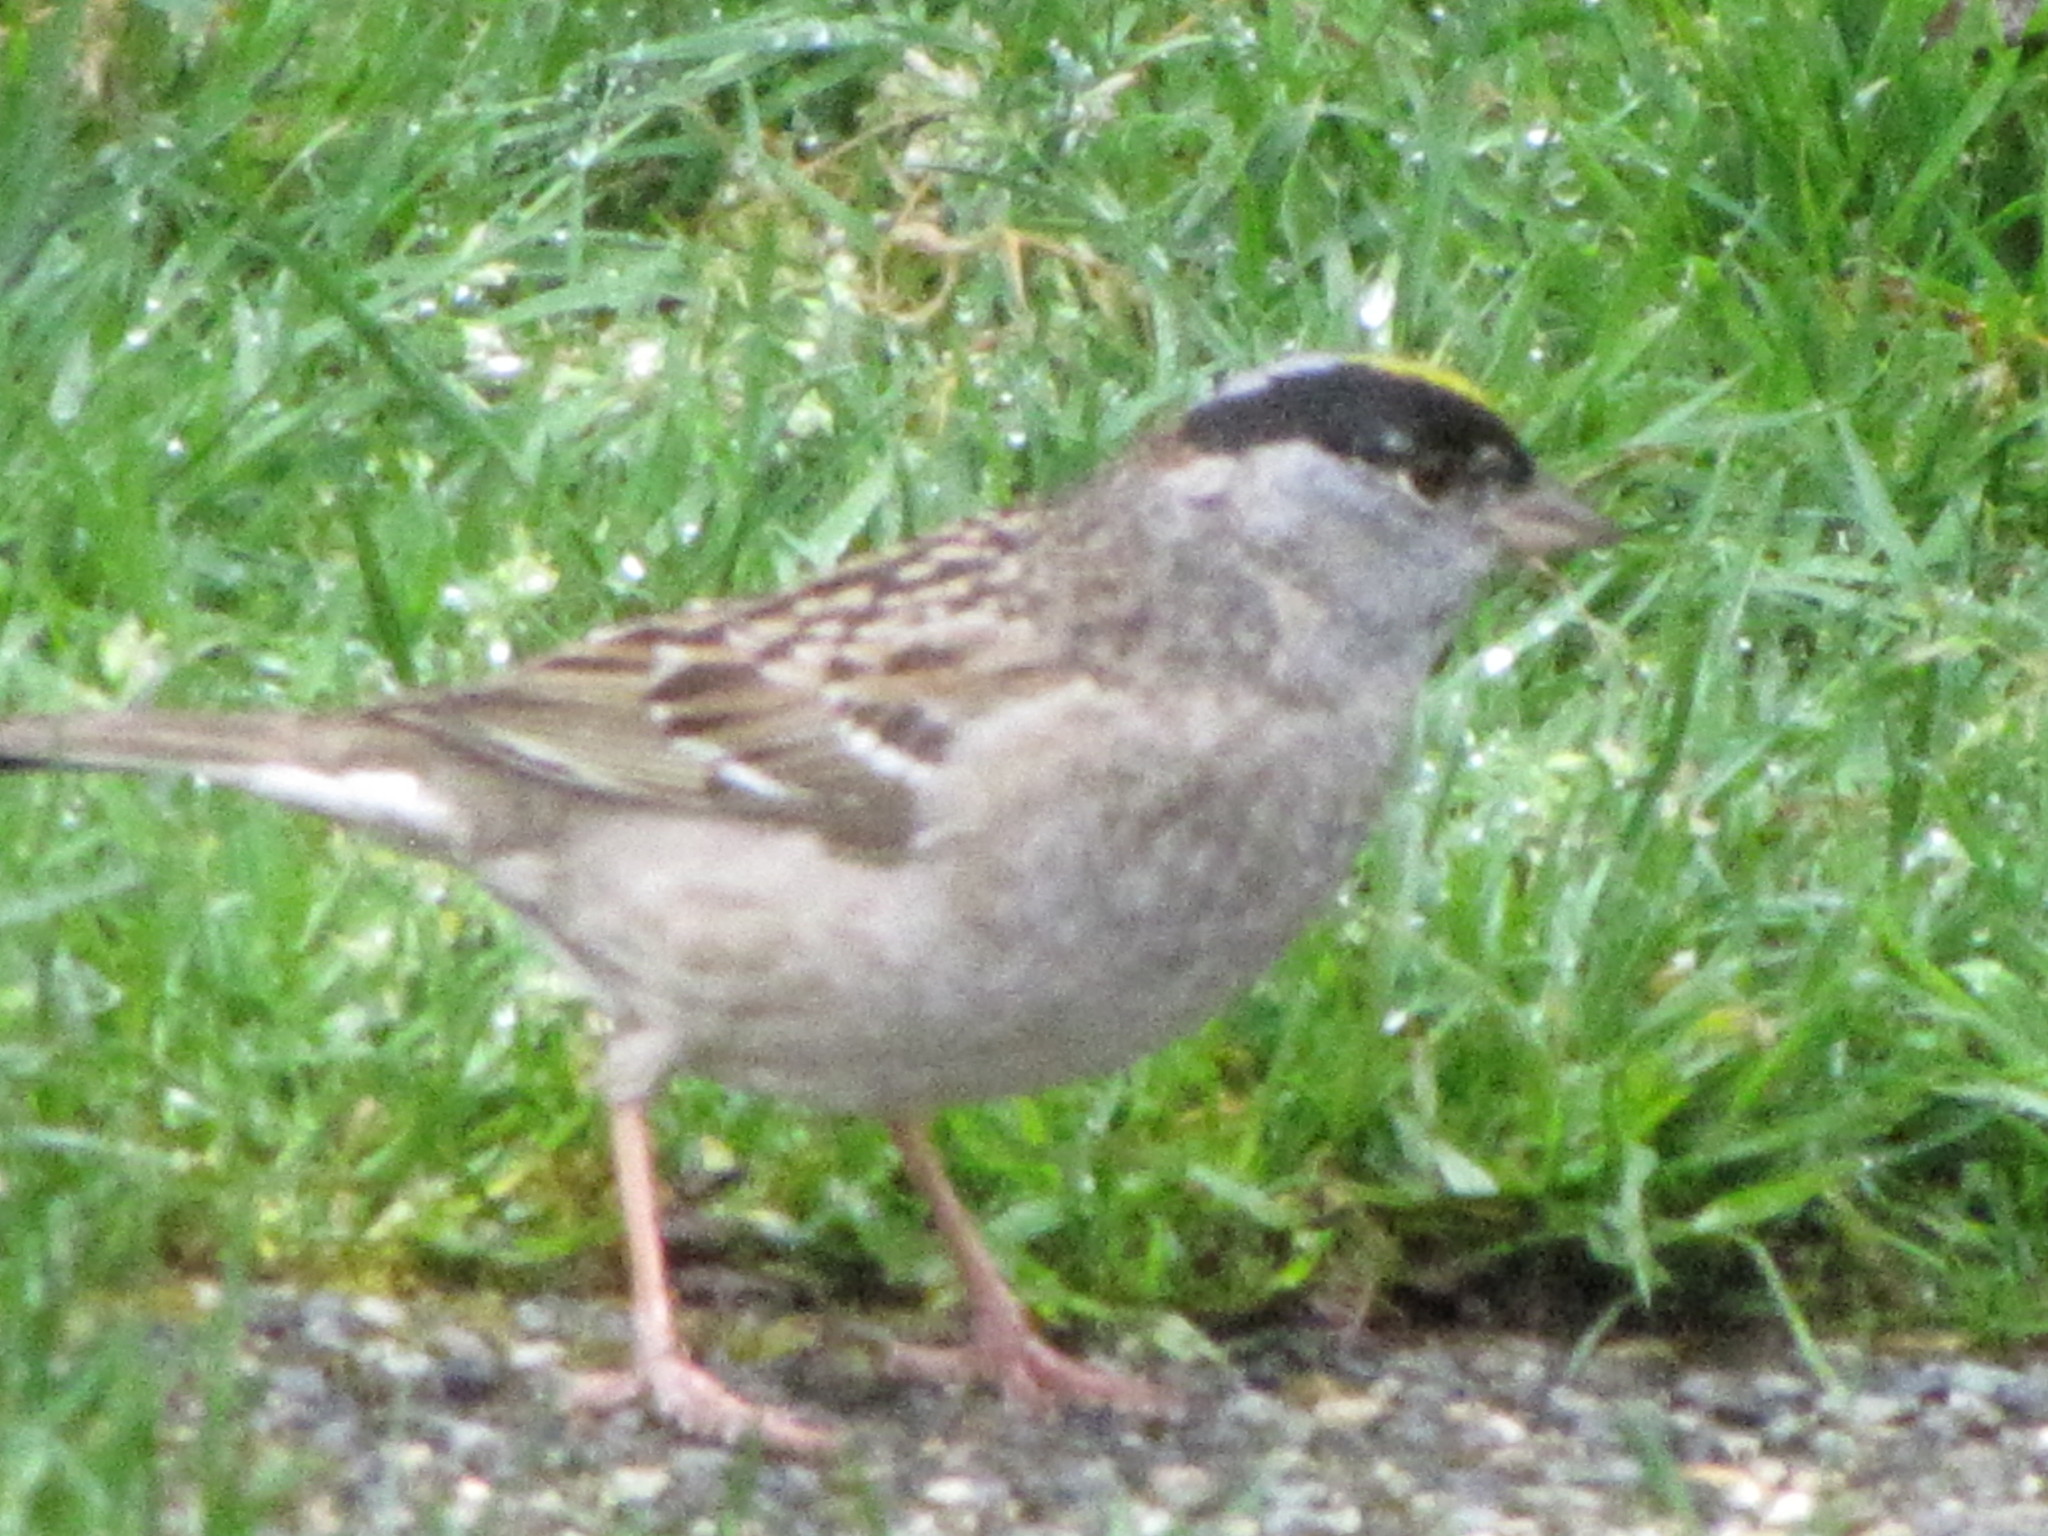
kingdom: Animalia
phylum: Chordata
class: Aves
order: Passeriformes
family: Passerellidae
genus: Zonotrichia
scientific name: Zonotrichia atricapilla
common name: Golden-crowned sparrow
